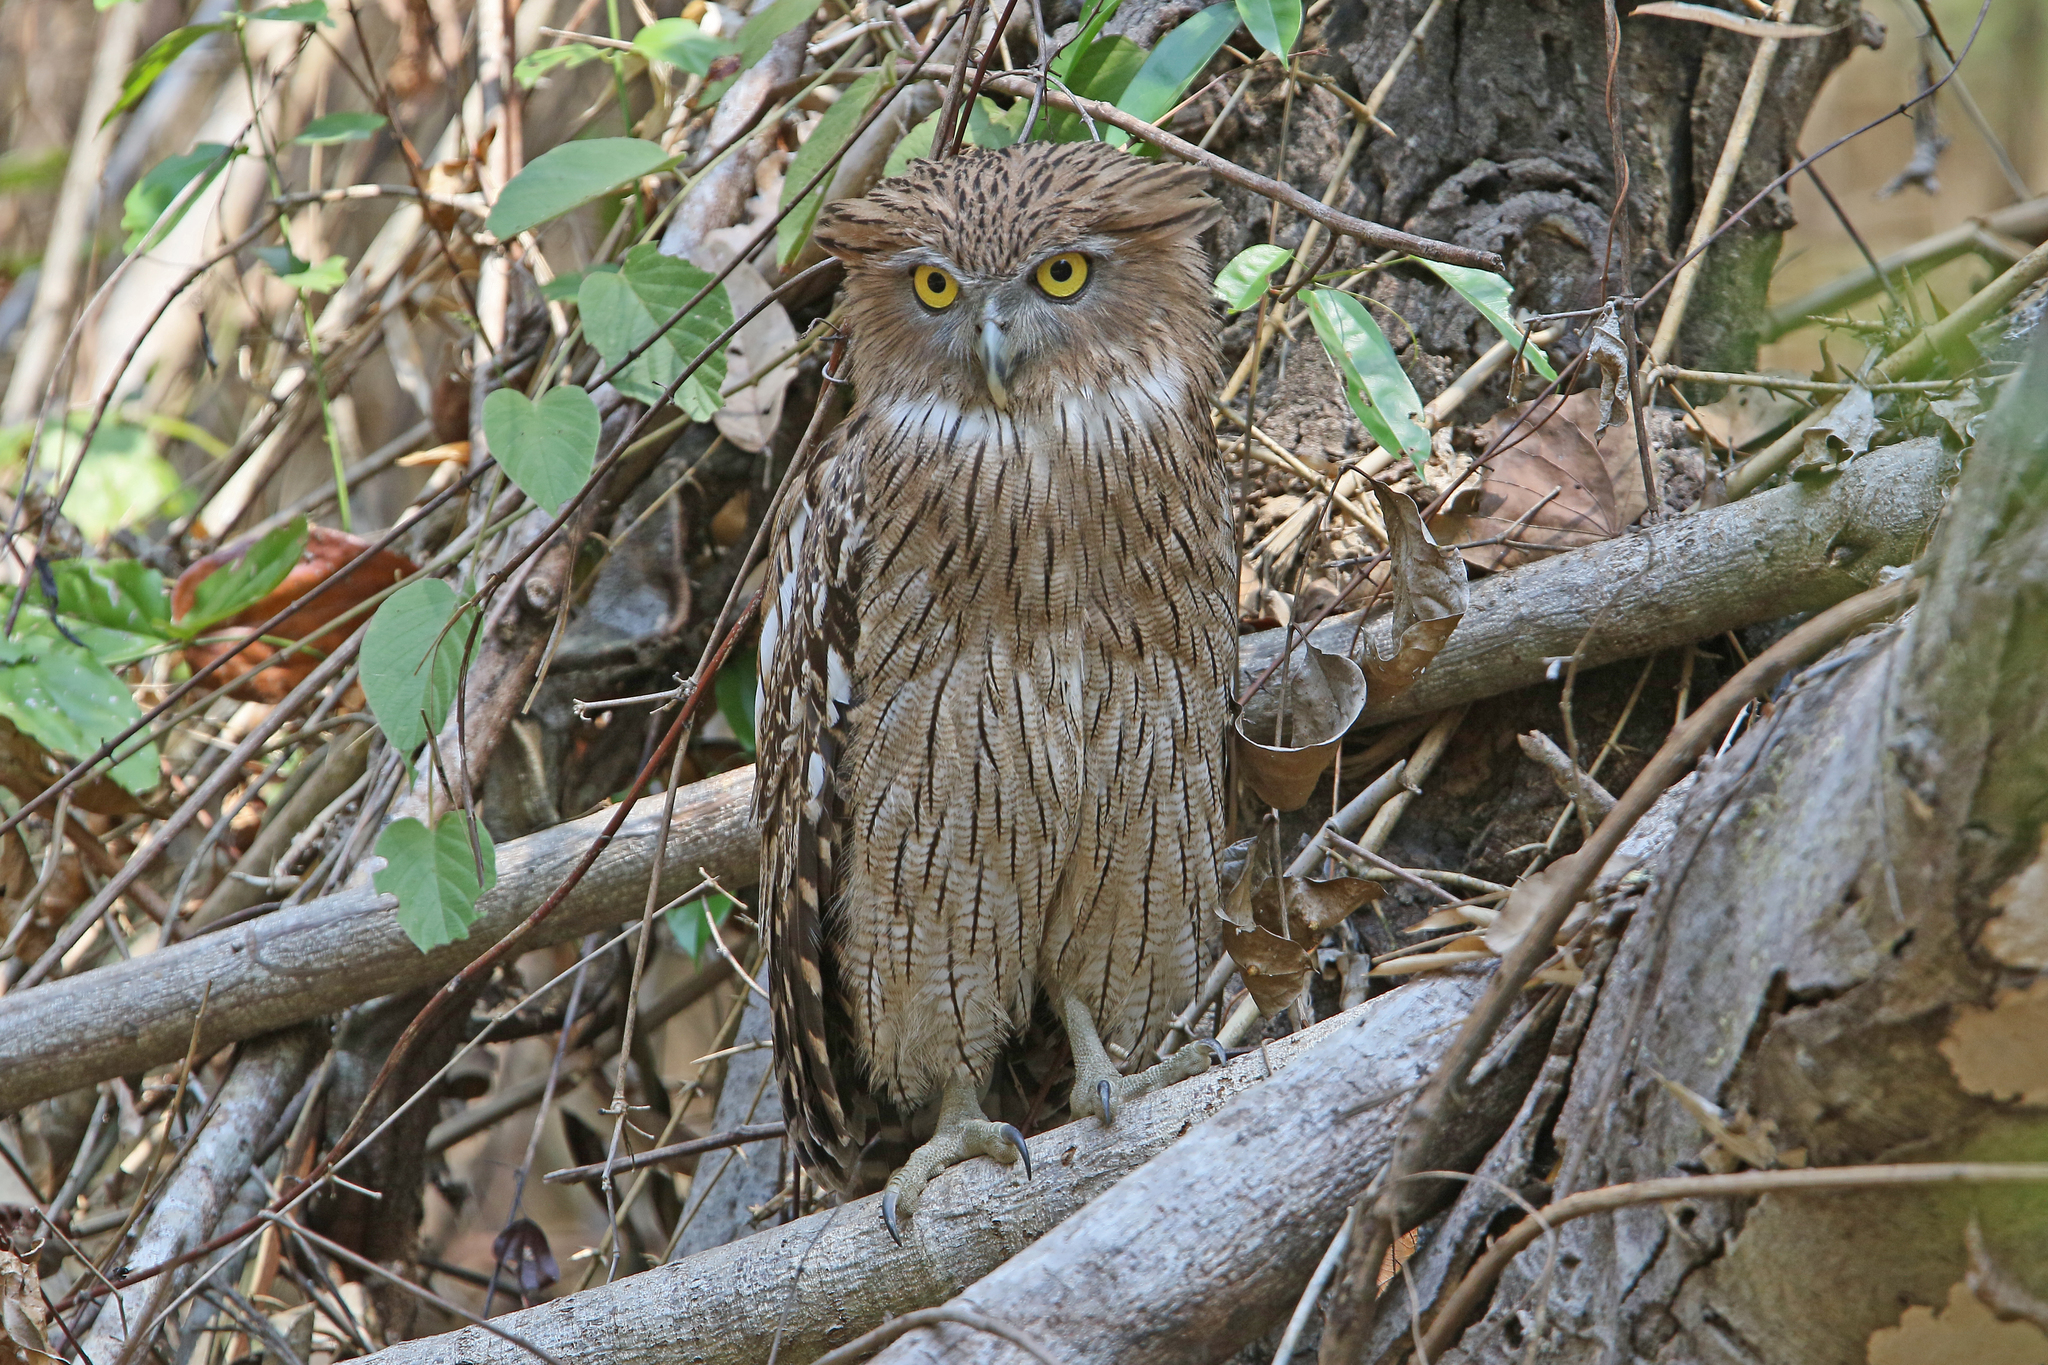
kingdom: Animalia
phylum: Chordata
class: Aves
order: Strigiformes
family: Strigidae
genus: Ketupa
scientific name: Ketupa zeylonensis
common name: Brown fish owl
